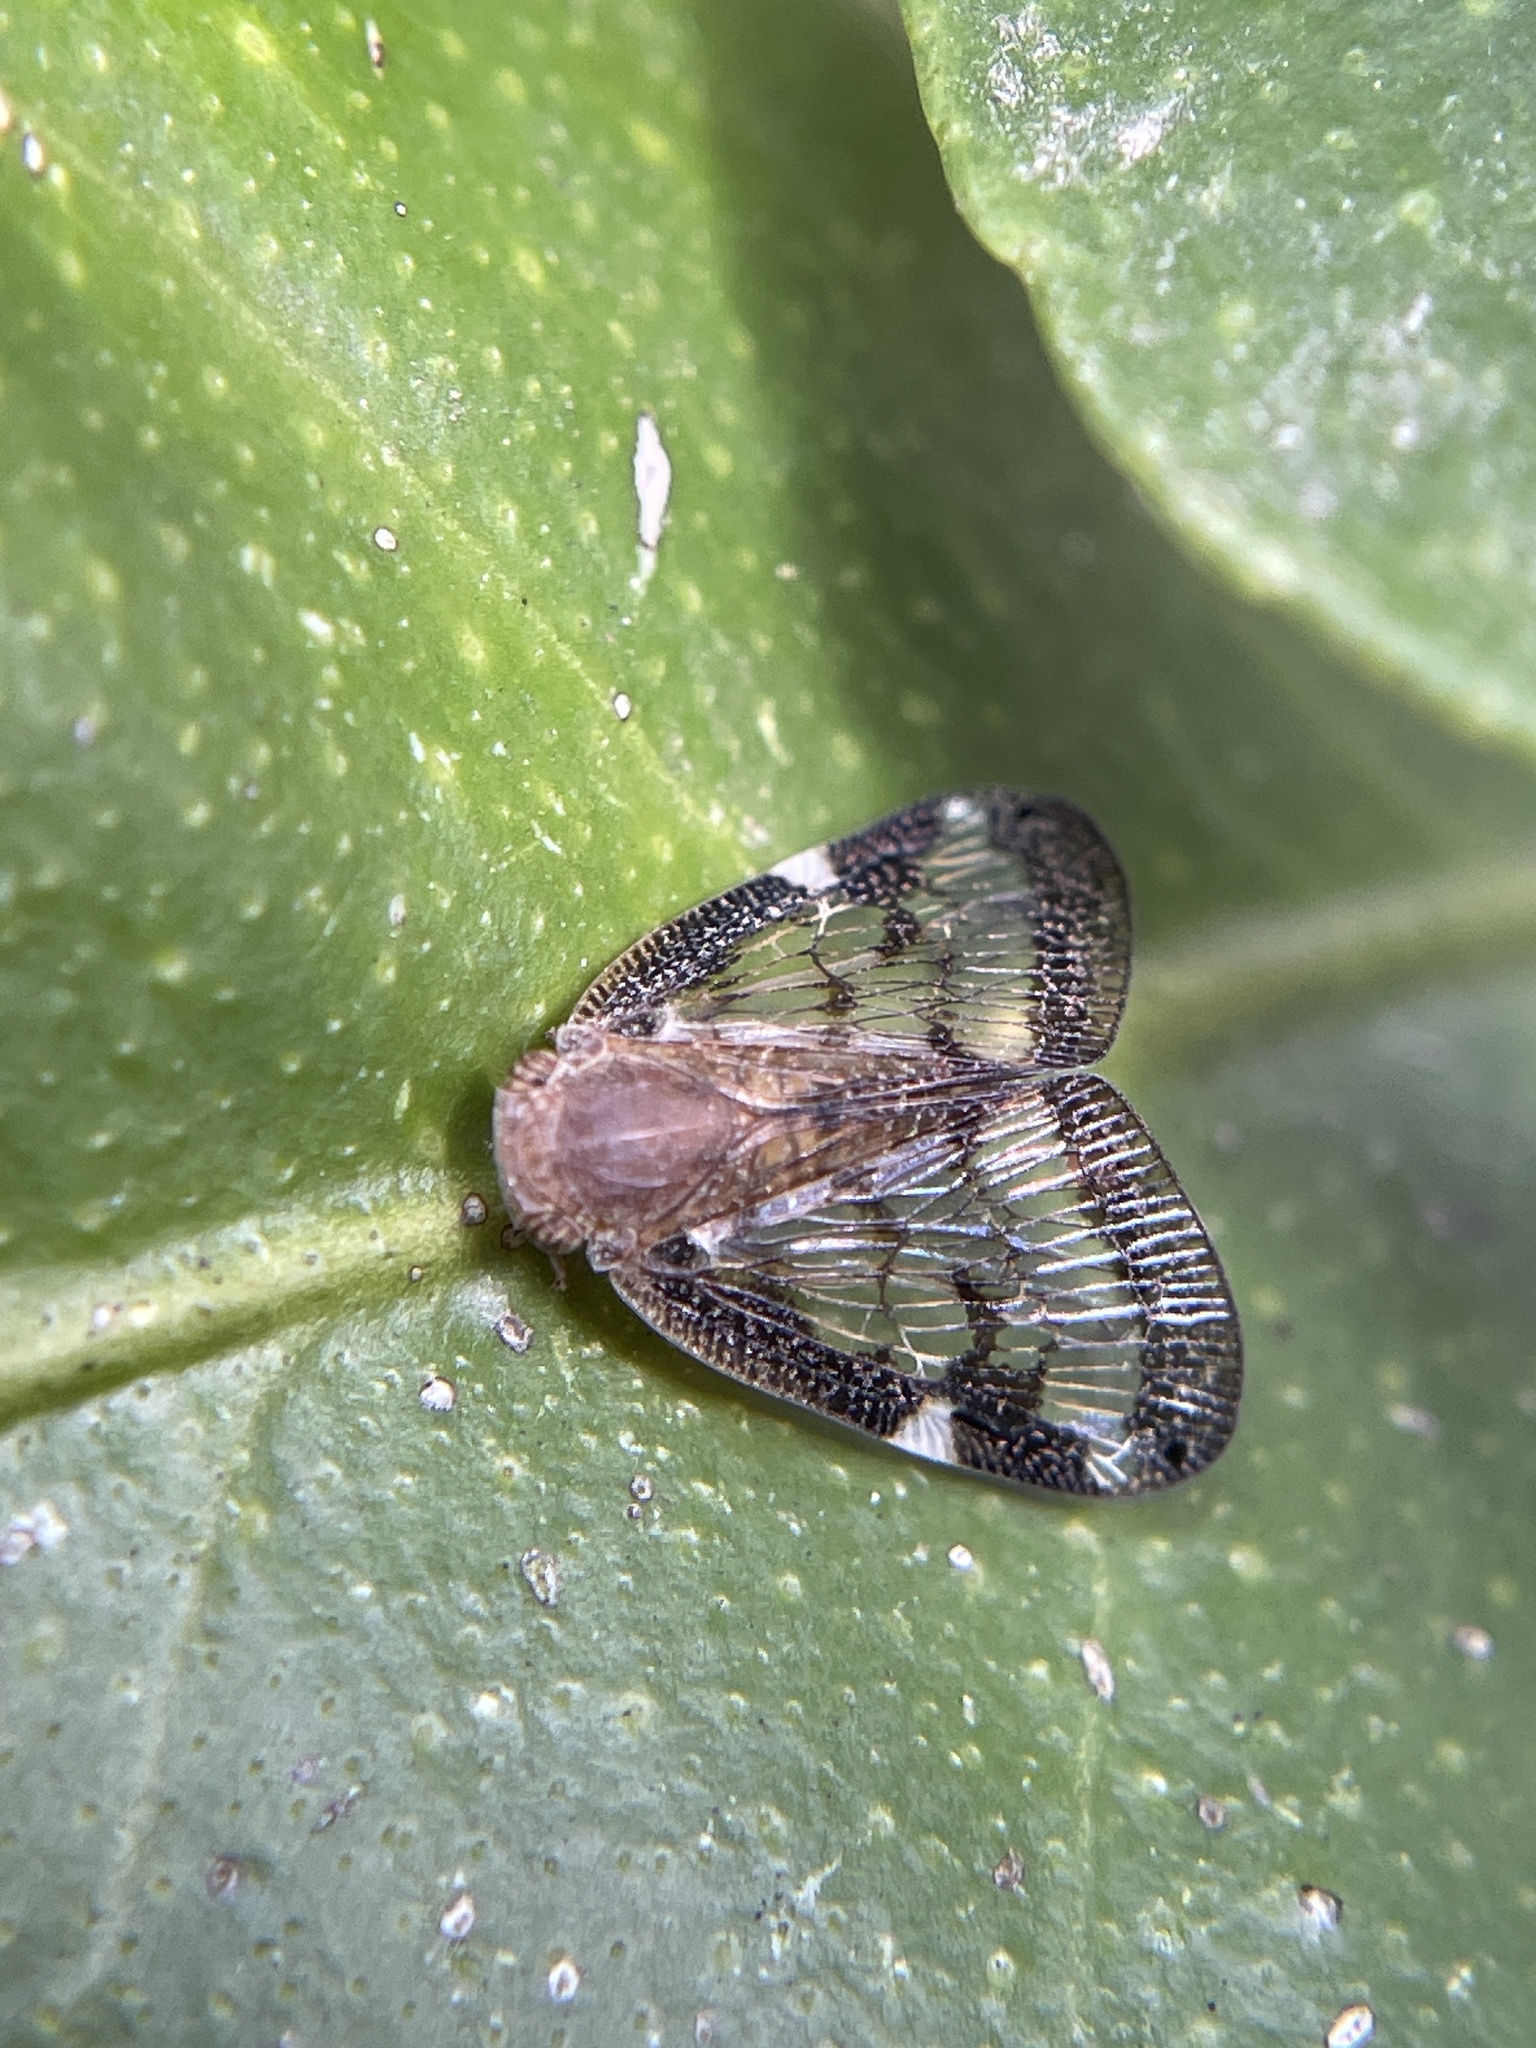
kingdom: Animalia
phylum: Arthropoda
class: Insecta
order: Hemiptera
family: Ricaniidae
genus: Scolypopa
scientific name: Scolypopa australis
